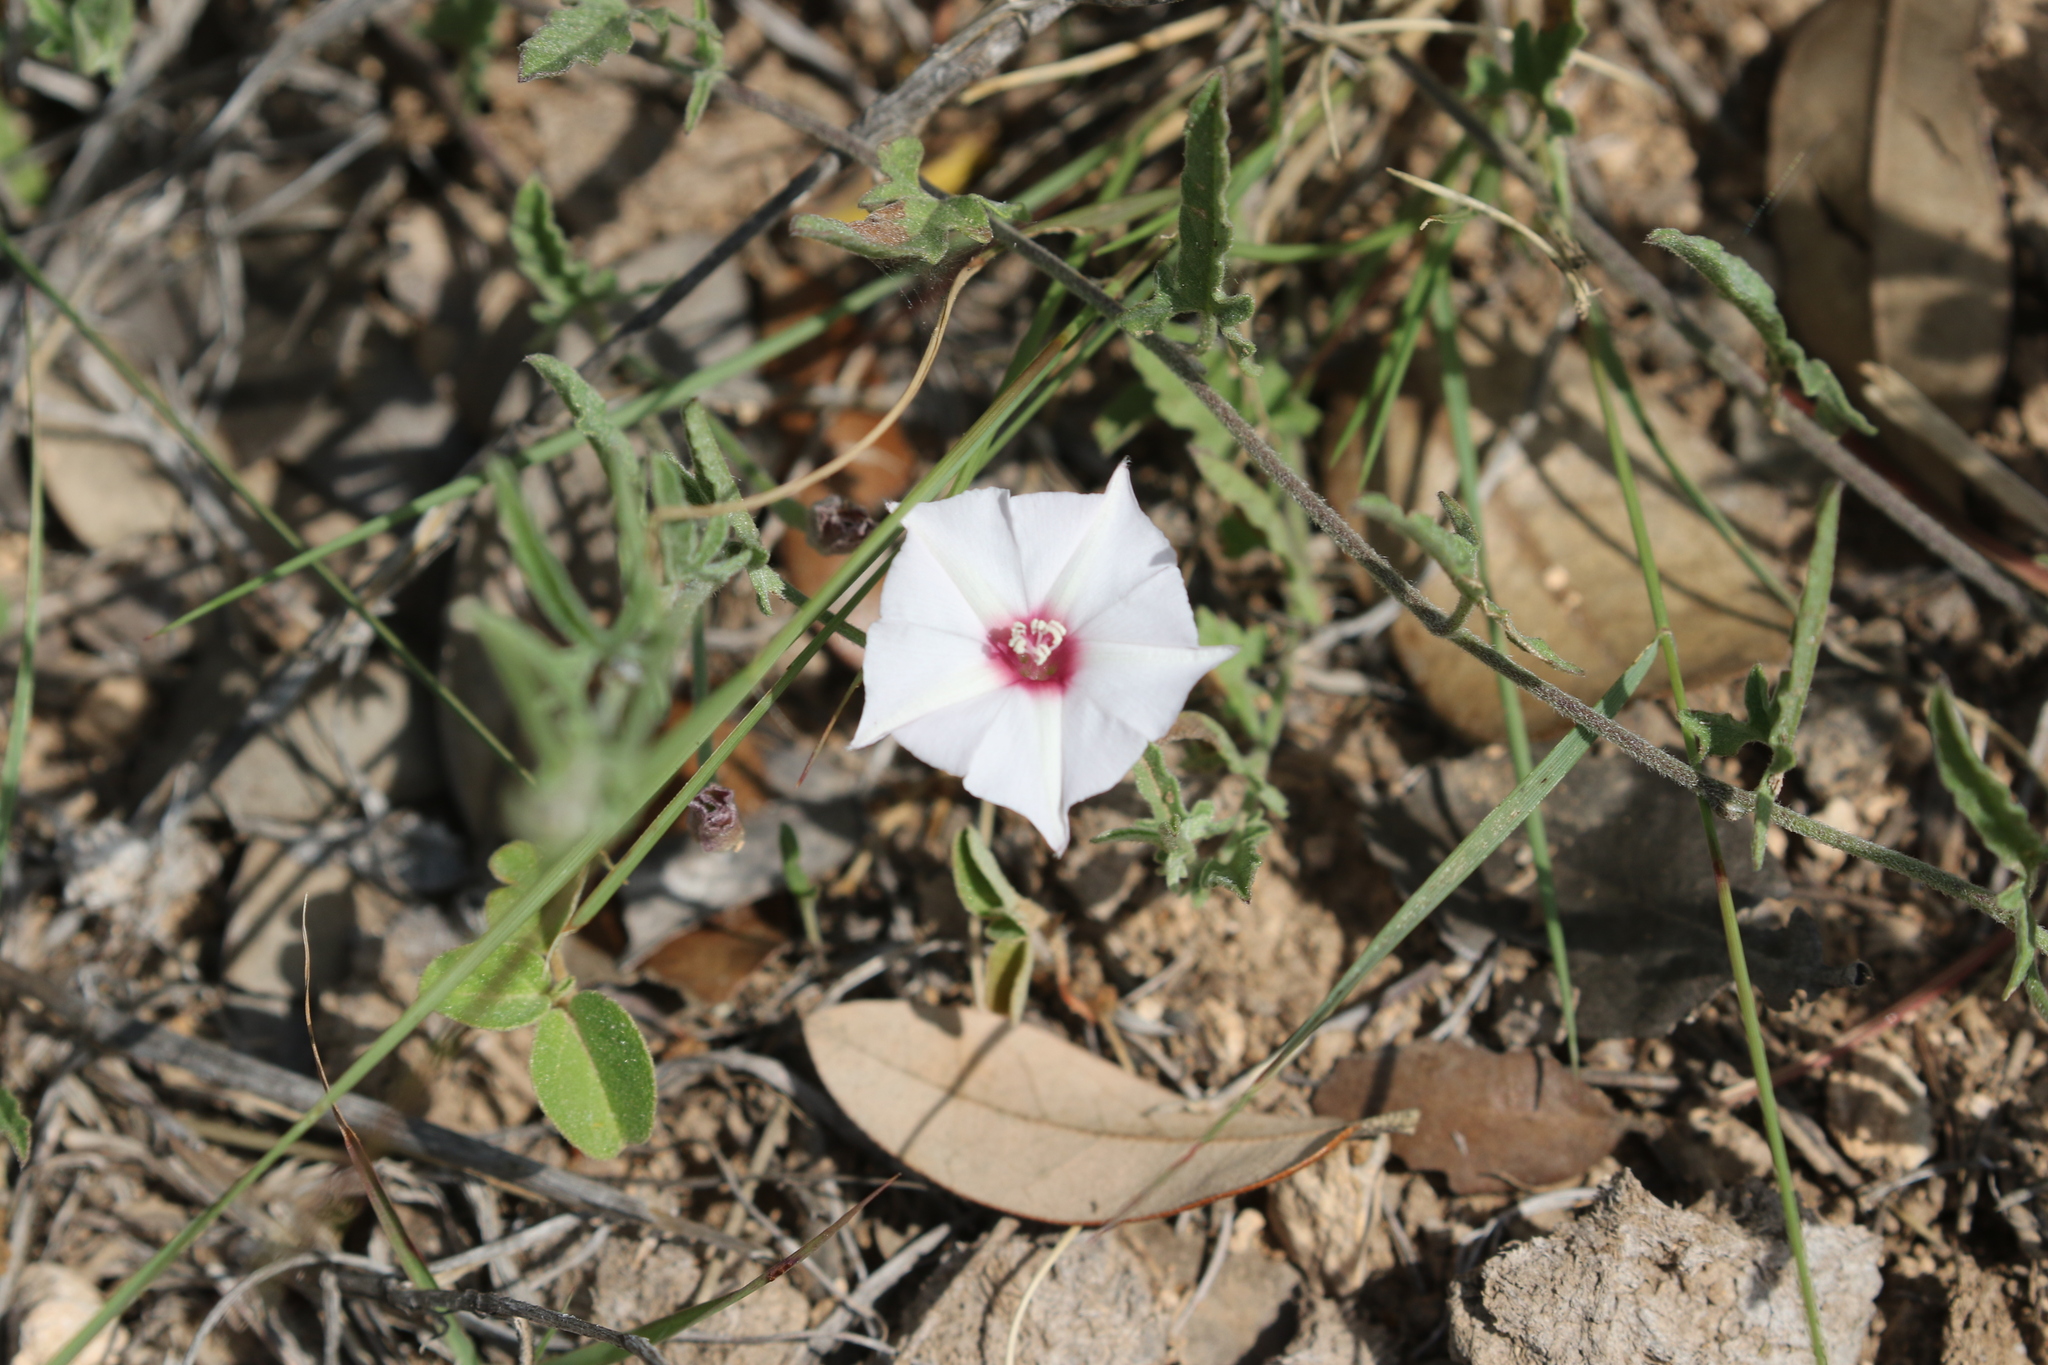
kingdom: Plantae
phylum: Tracheophyta
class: Magnoliopsida
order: Solanales
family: Convolvulaceae
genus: Convolvulus
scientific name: Convolvulus equitans
